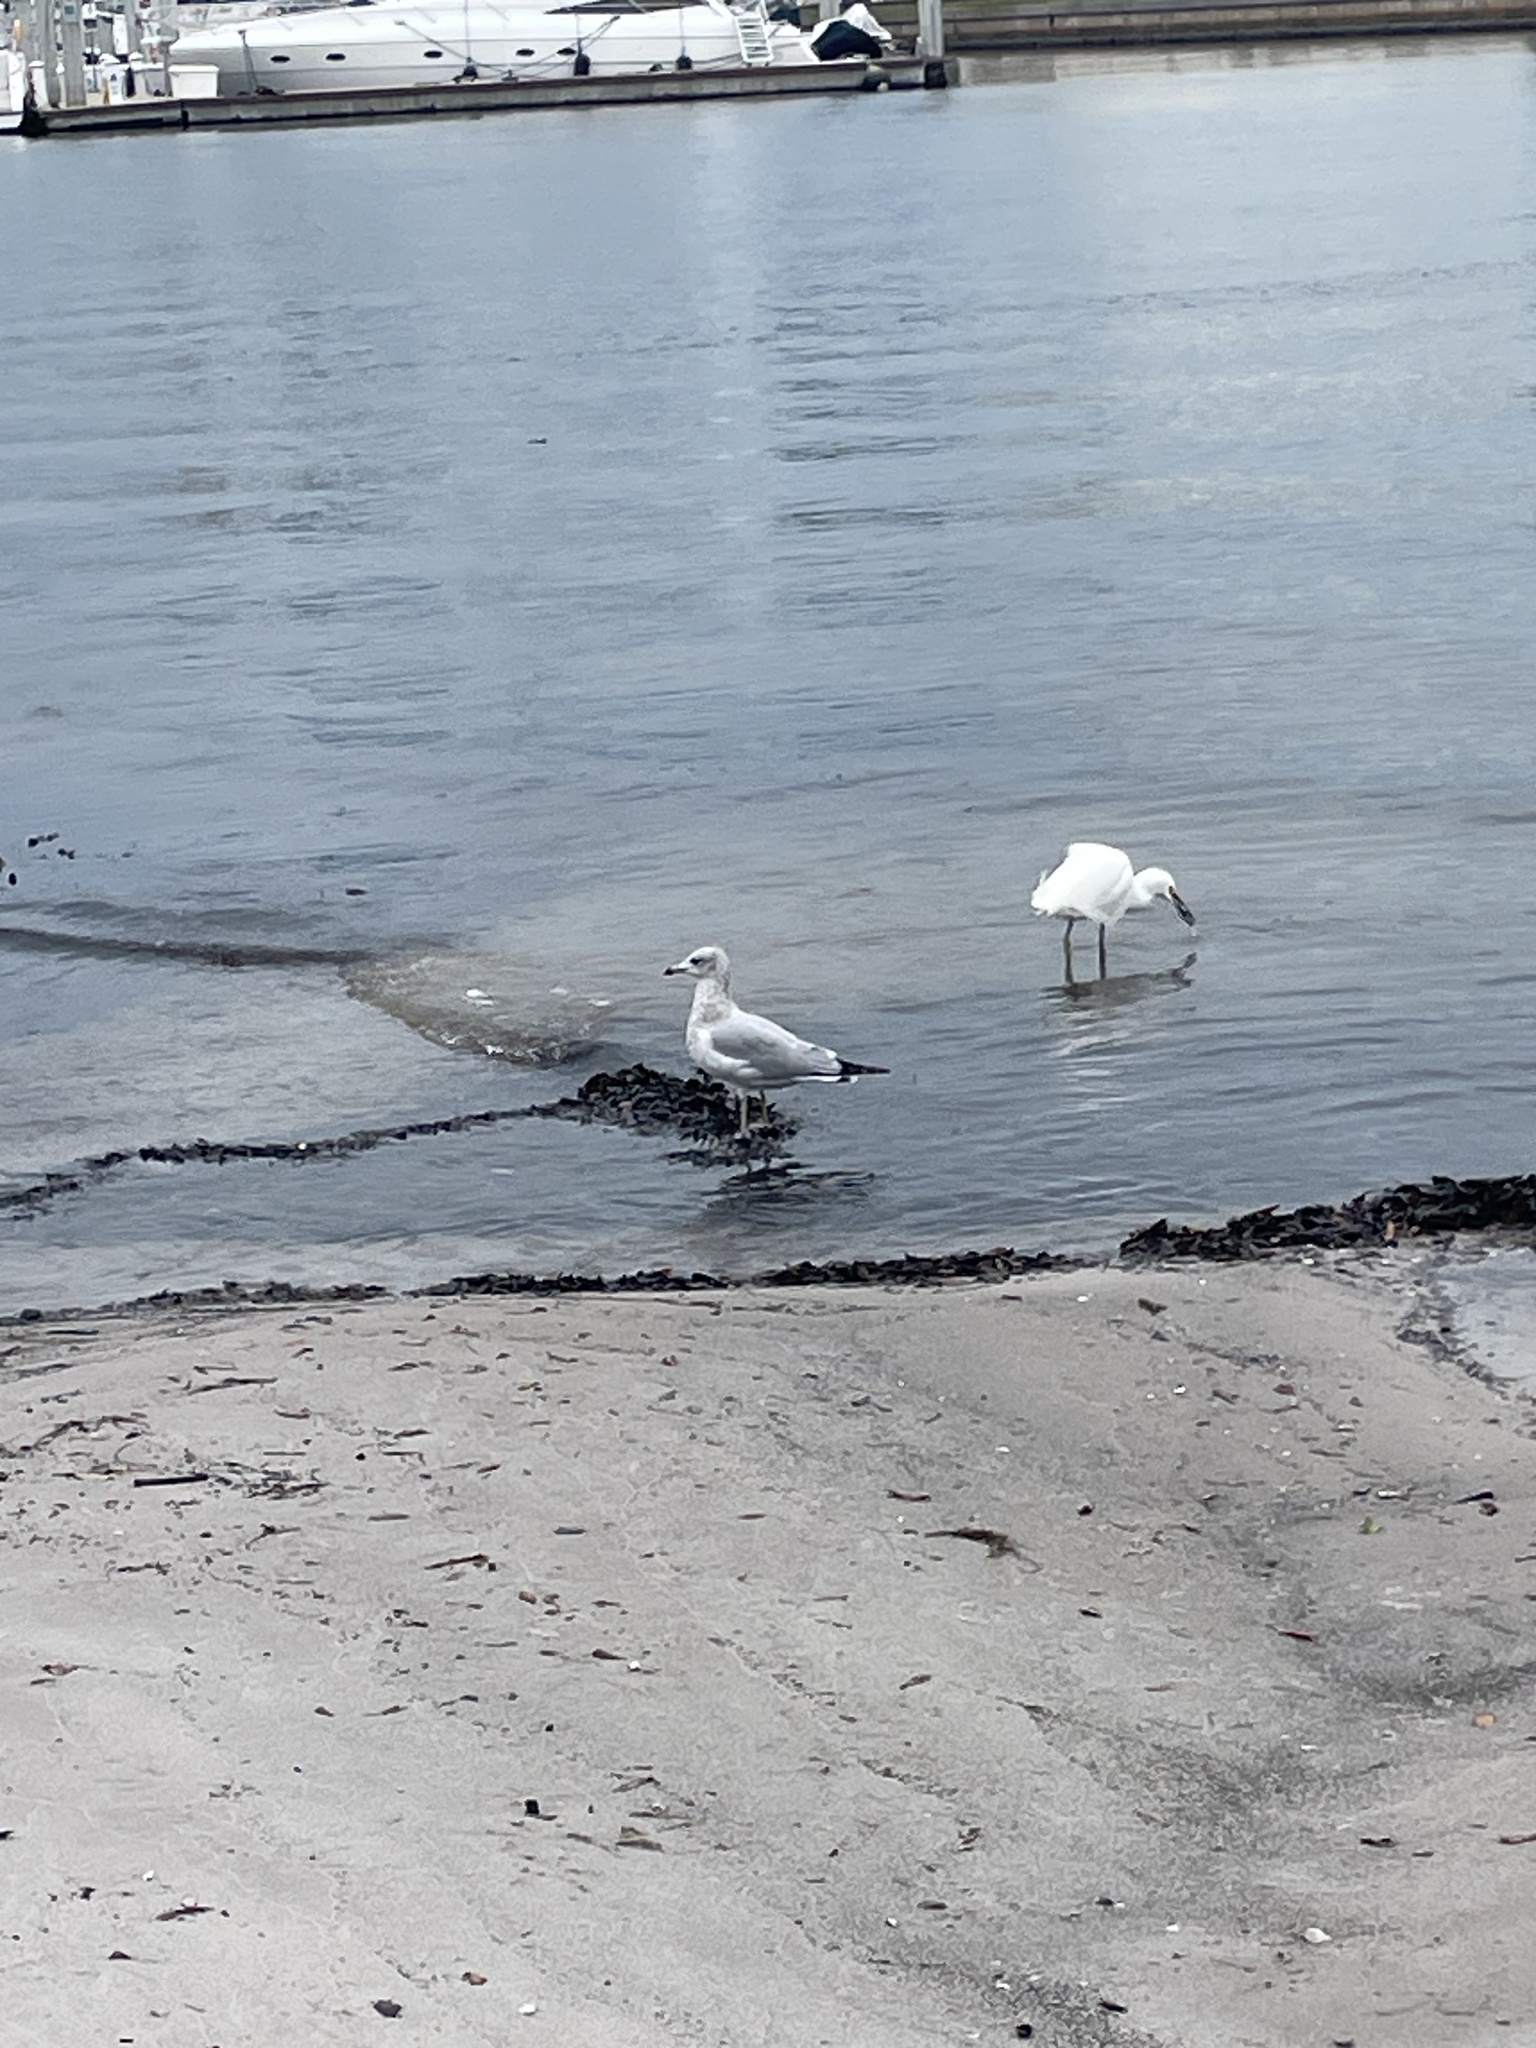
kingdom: Animalia
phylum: Chordata
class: Aves
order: Charadriiformes
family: Laridae
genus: Larus
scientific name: Larus delawarensis
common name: Ring-billed gull
